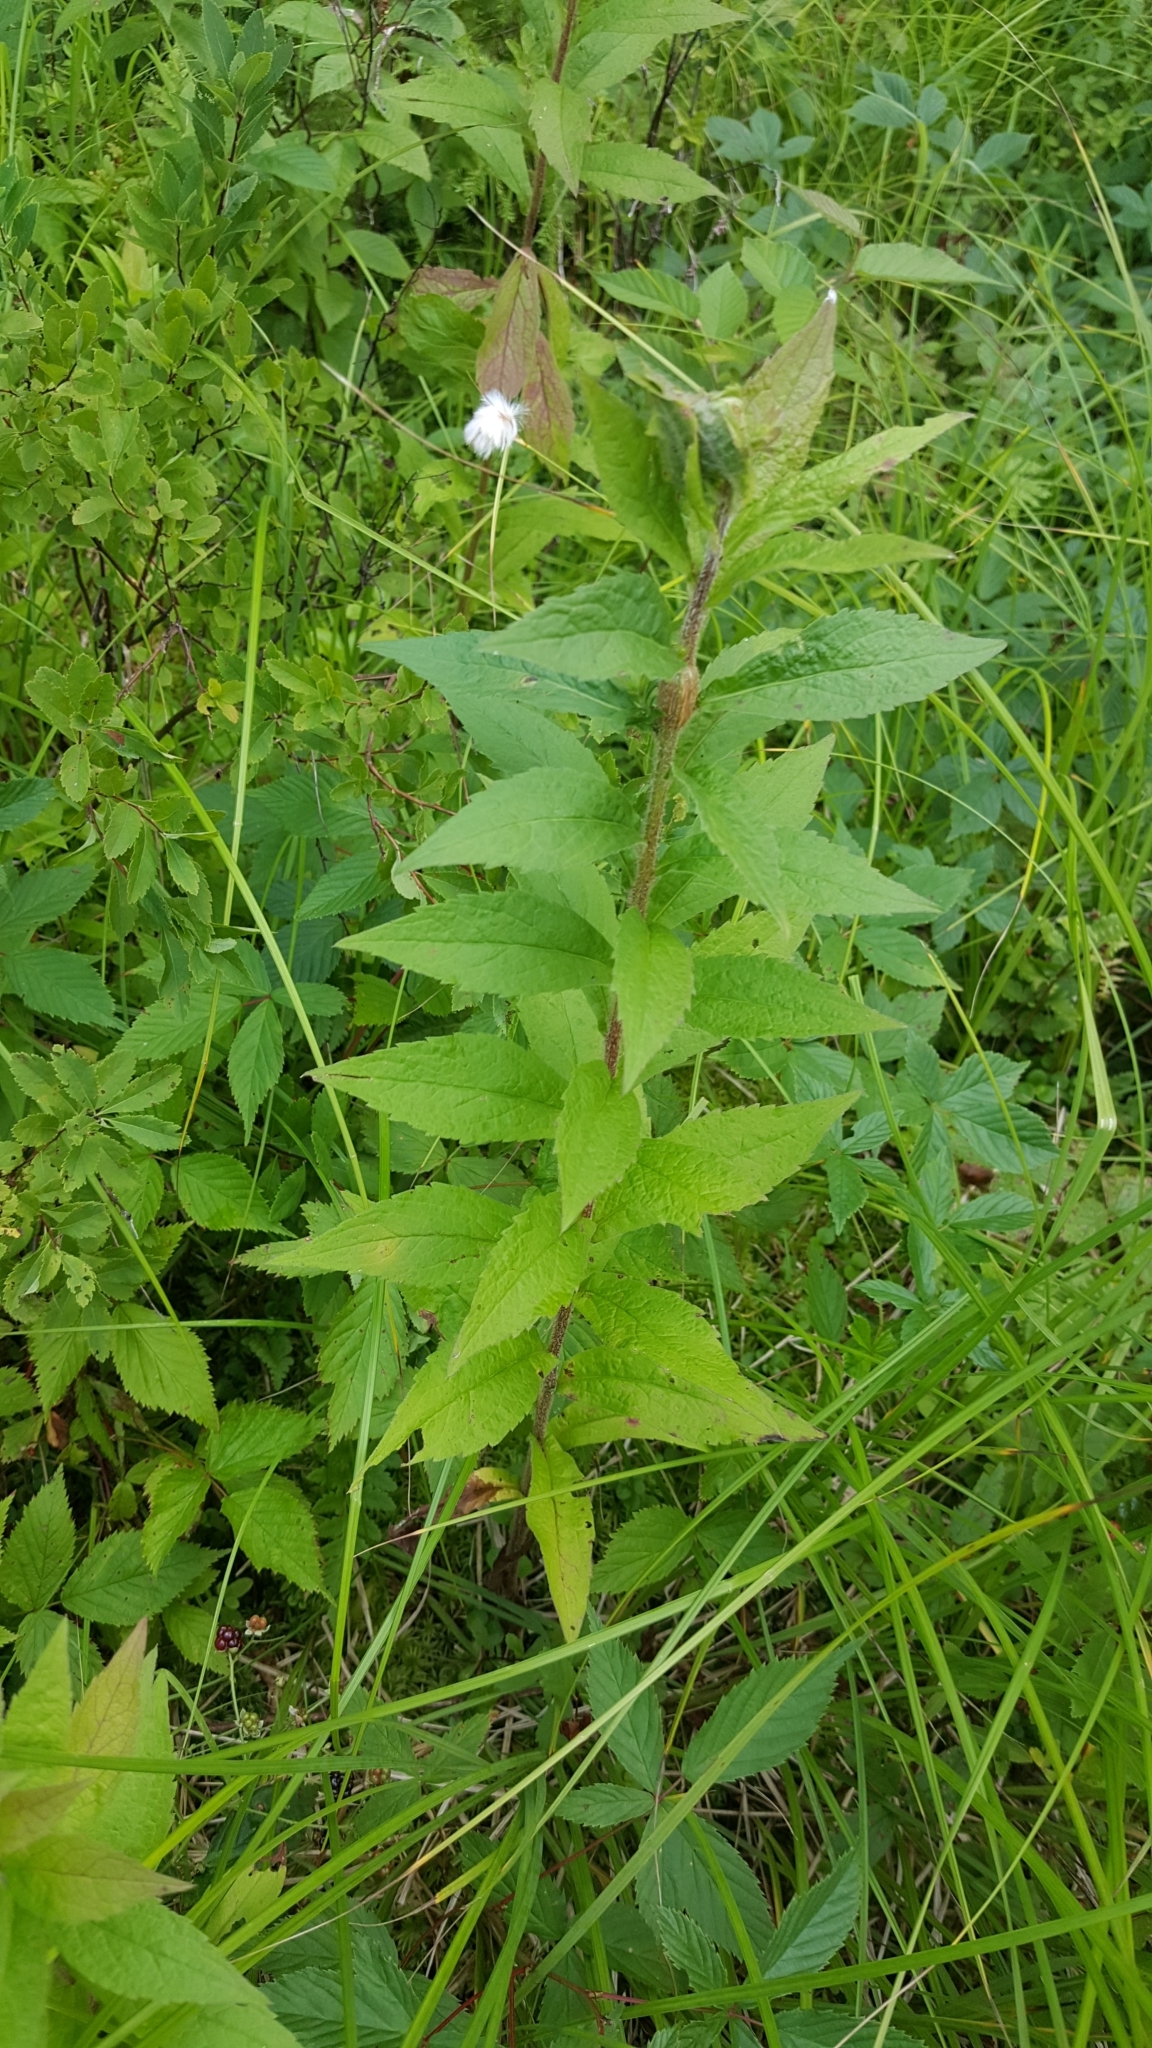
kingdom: Plantae
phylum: Tracheophyta
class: Magnoliopsida
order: Asterales
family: Asteraceae
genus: Solidago
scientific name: Solidago rugosa
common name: Rough-stemmed goldenrod
